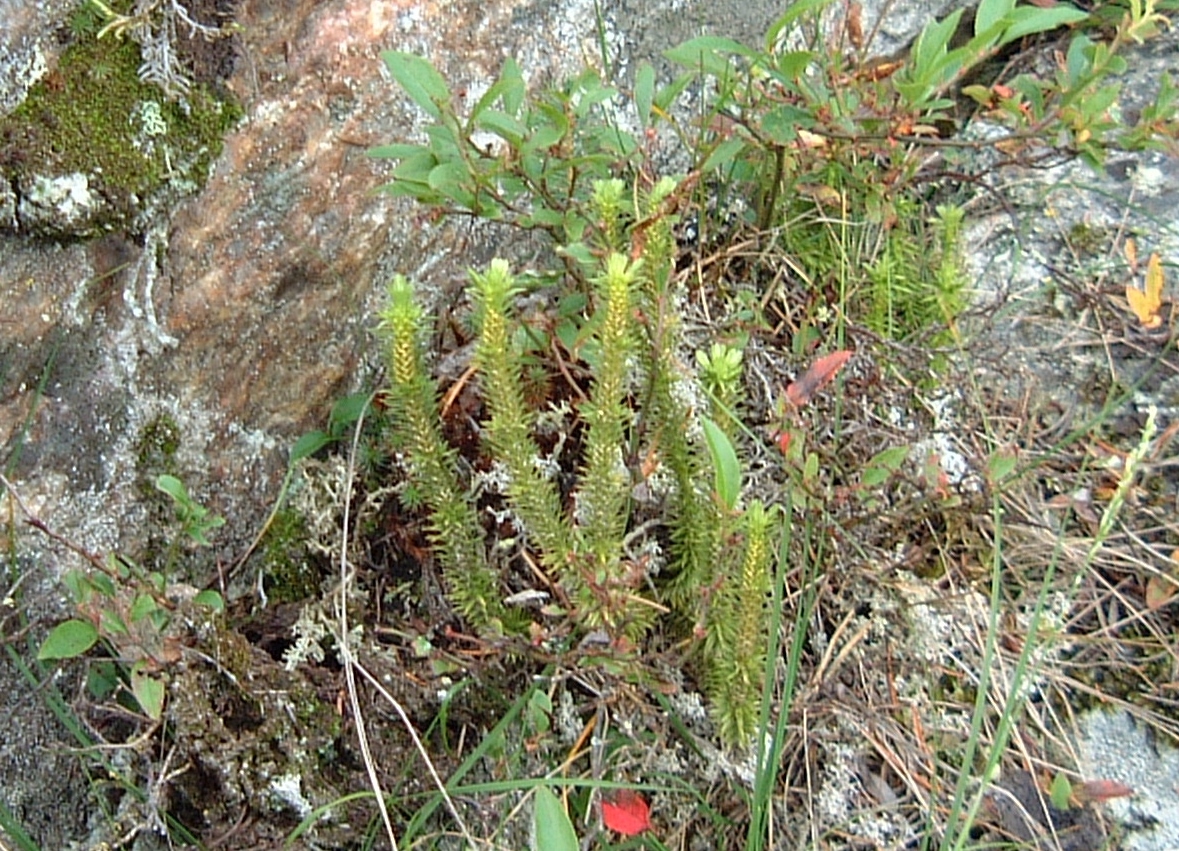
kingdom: Plantae
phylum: Tracheophyta
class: Lycopodiopsida
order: Lycopodiales
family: Lycopodiaceae
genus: Huperzia
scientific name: Huperzia selago
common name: Northern firmoss
